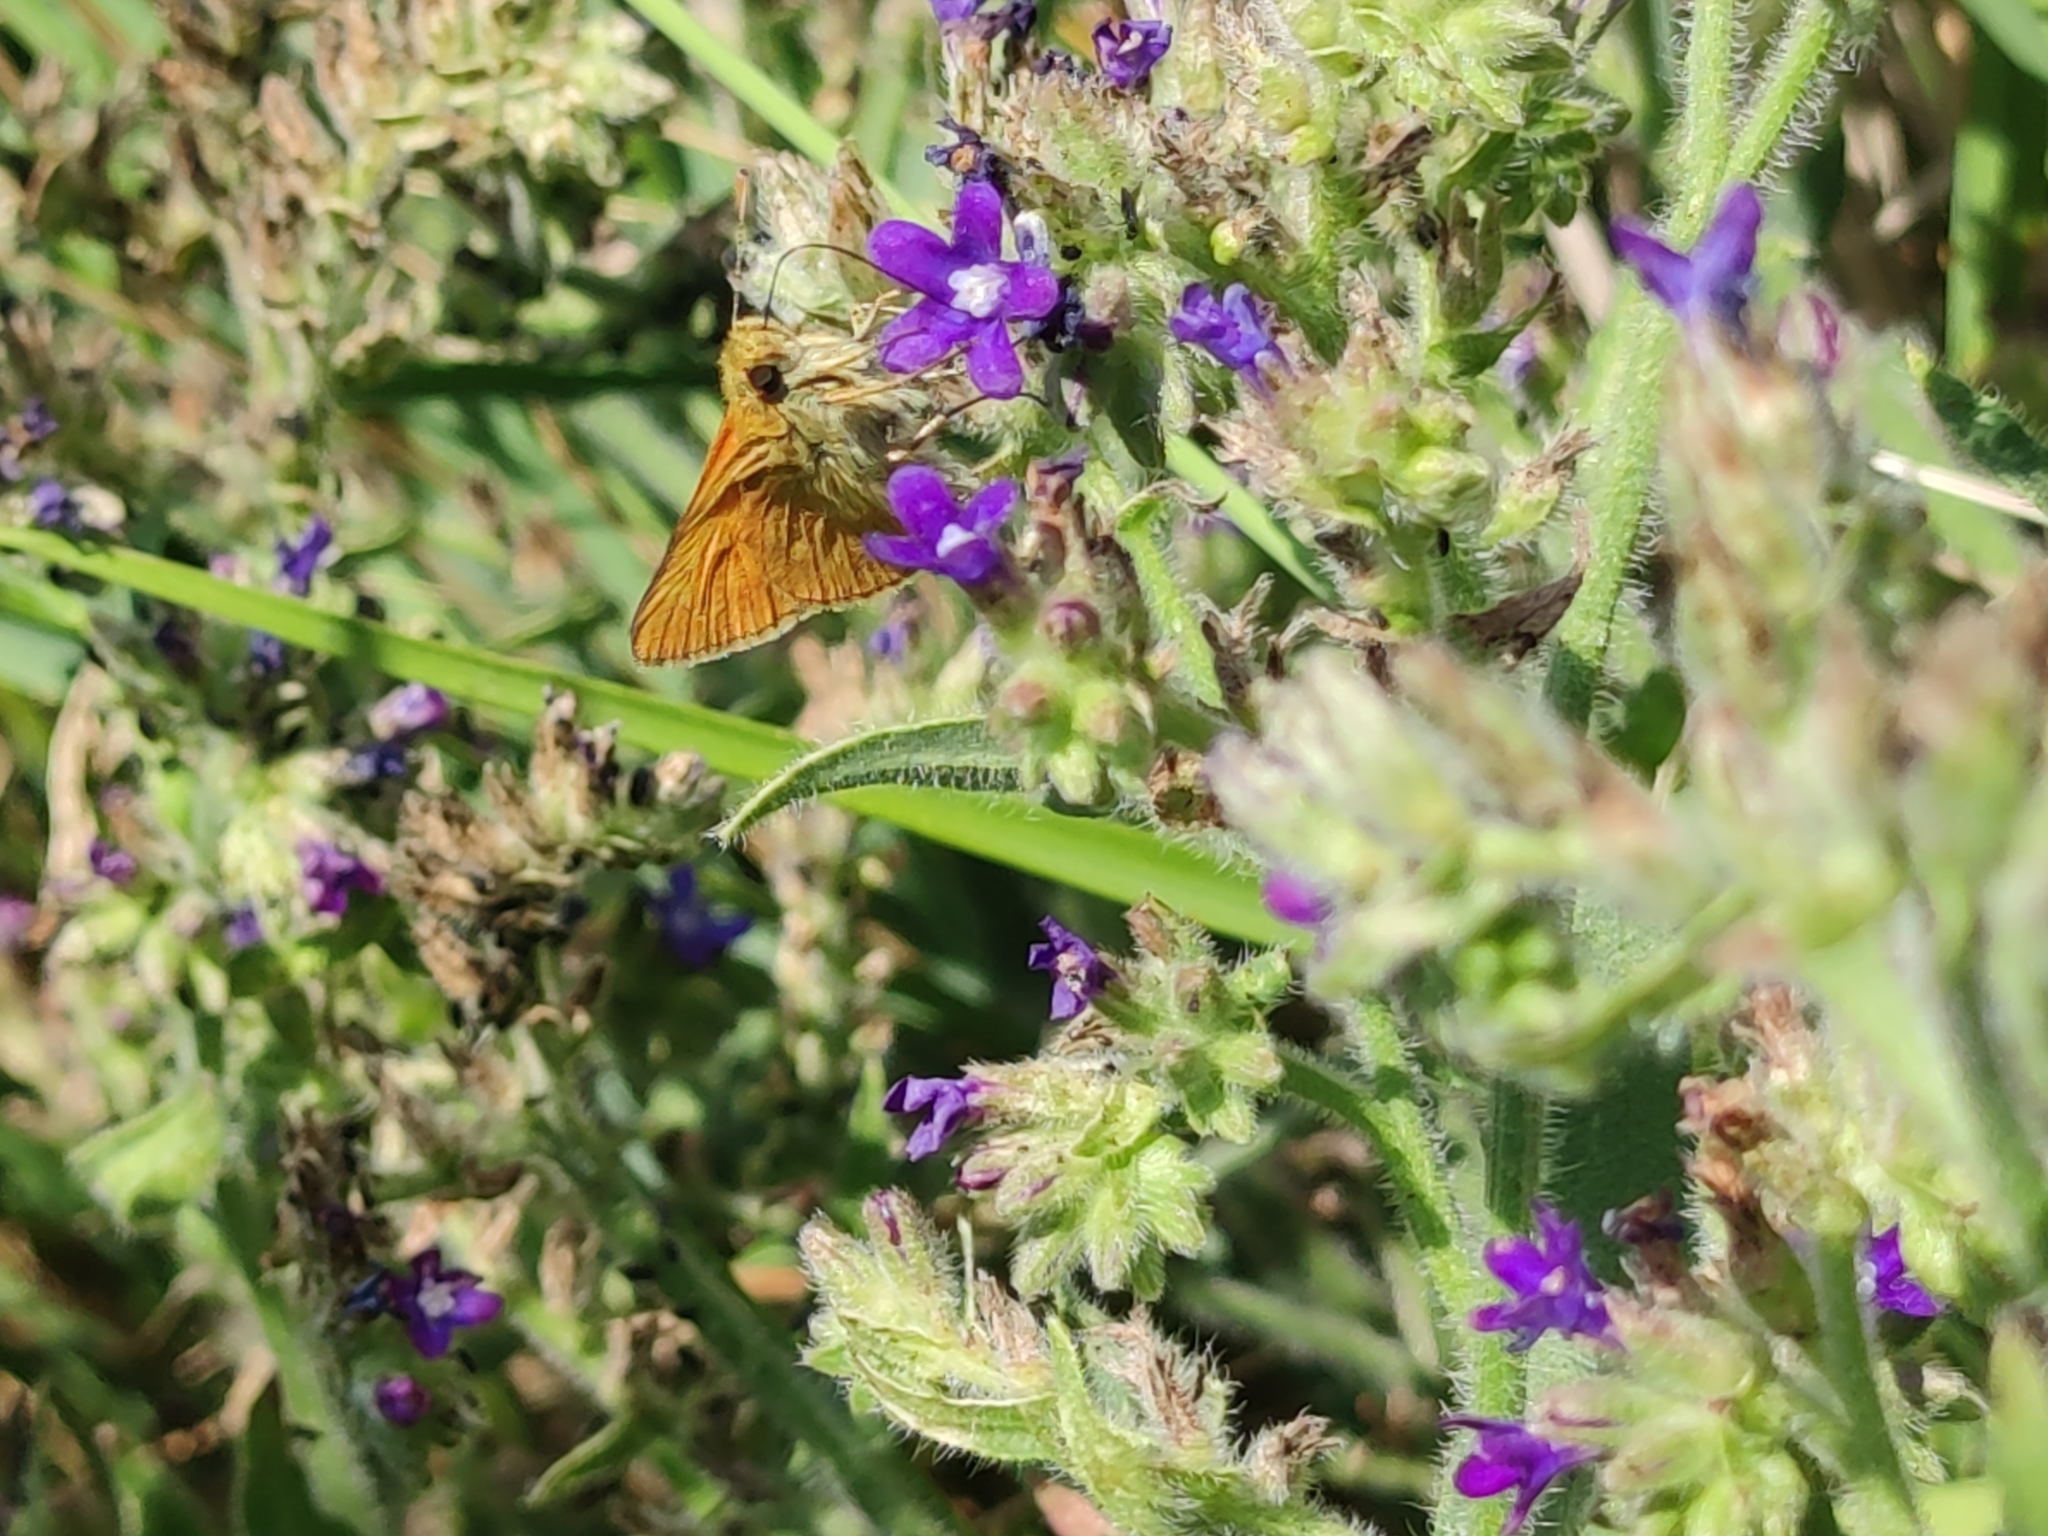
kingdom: Animalia
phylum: Arthropoda
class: Insecta
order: Lepidoptera
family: Hesperiidae
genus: Ochlodes
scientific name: Ochlodes venata
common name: Large skipper
